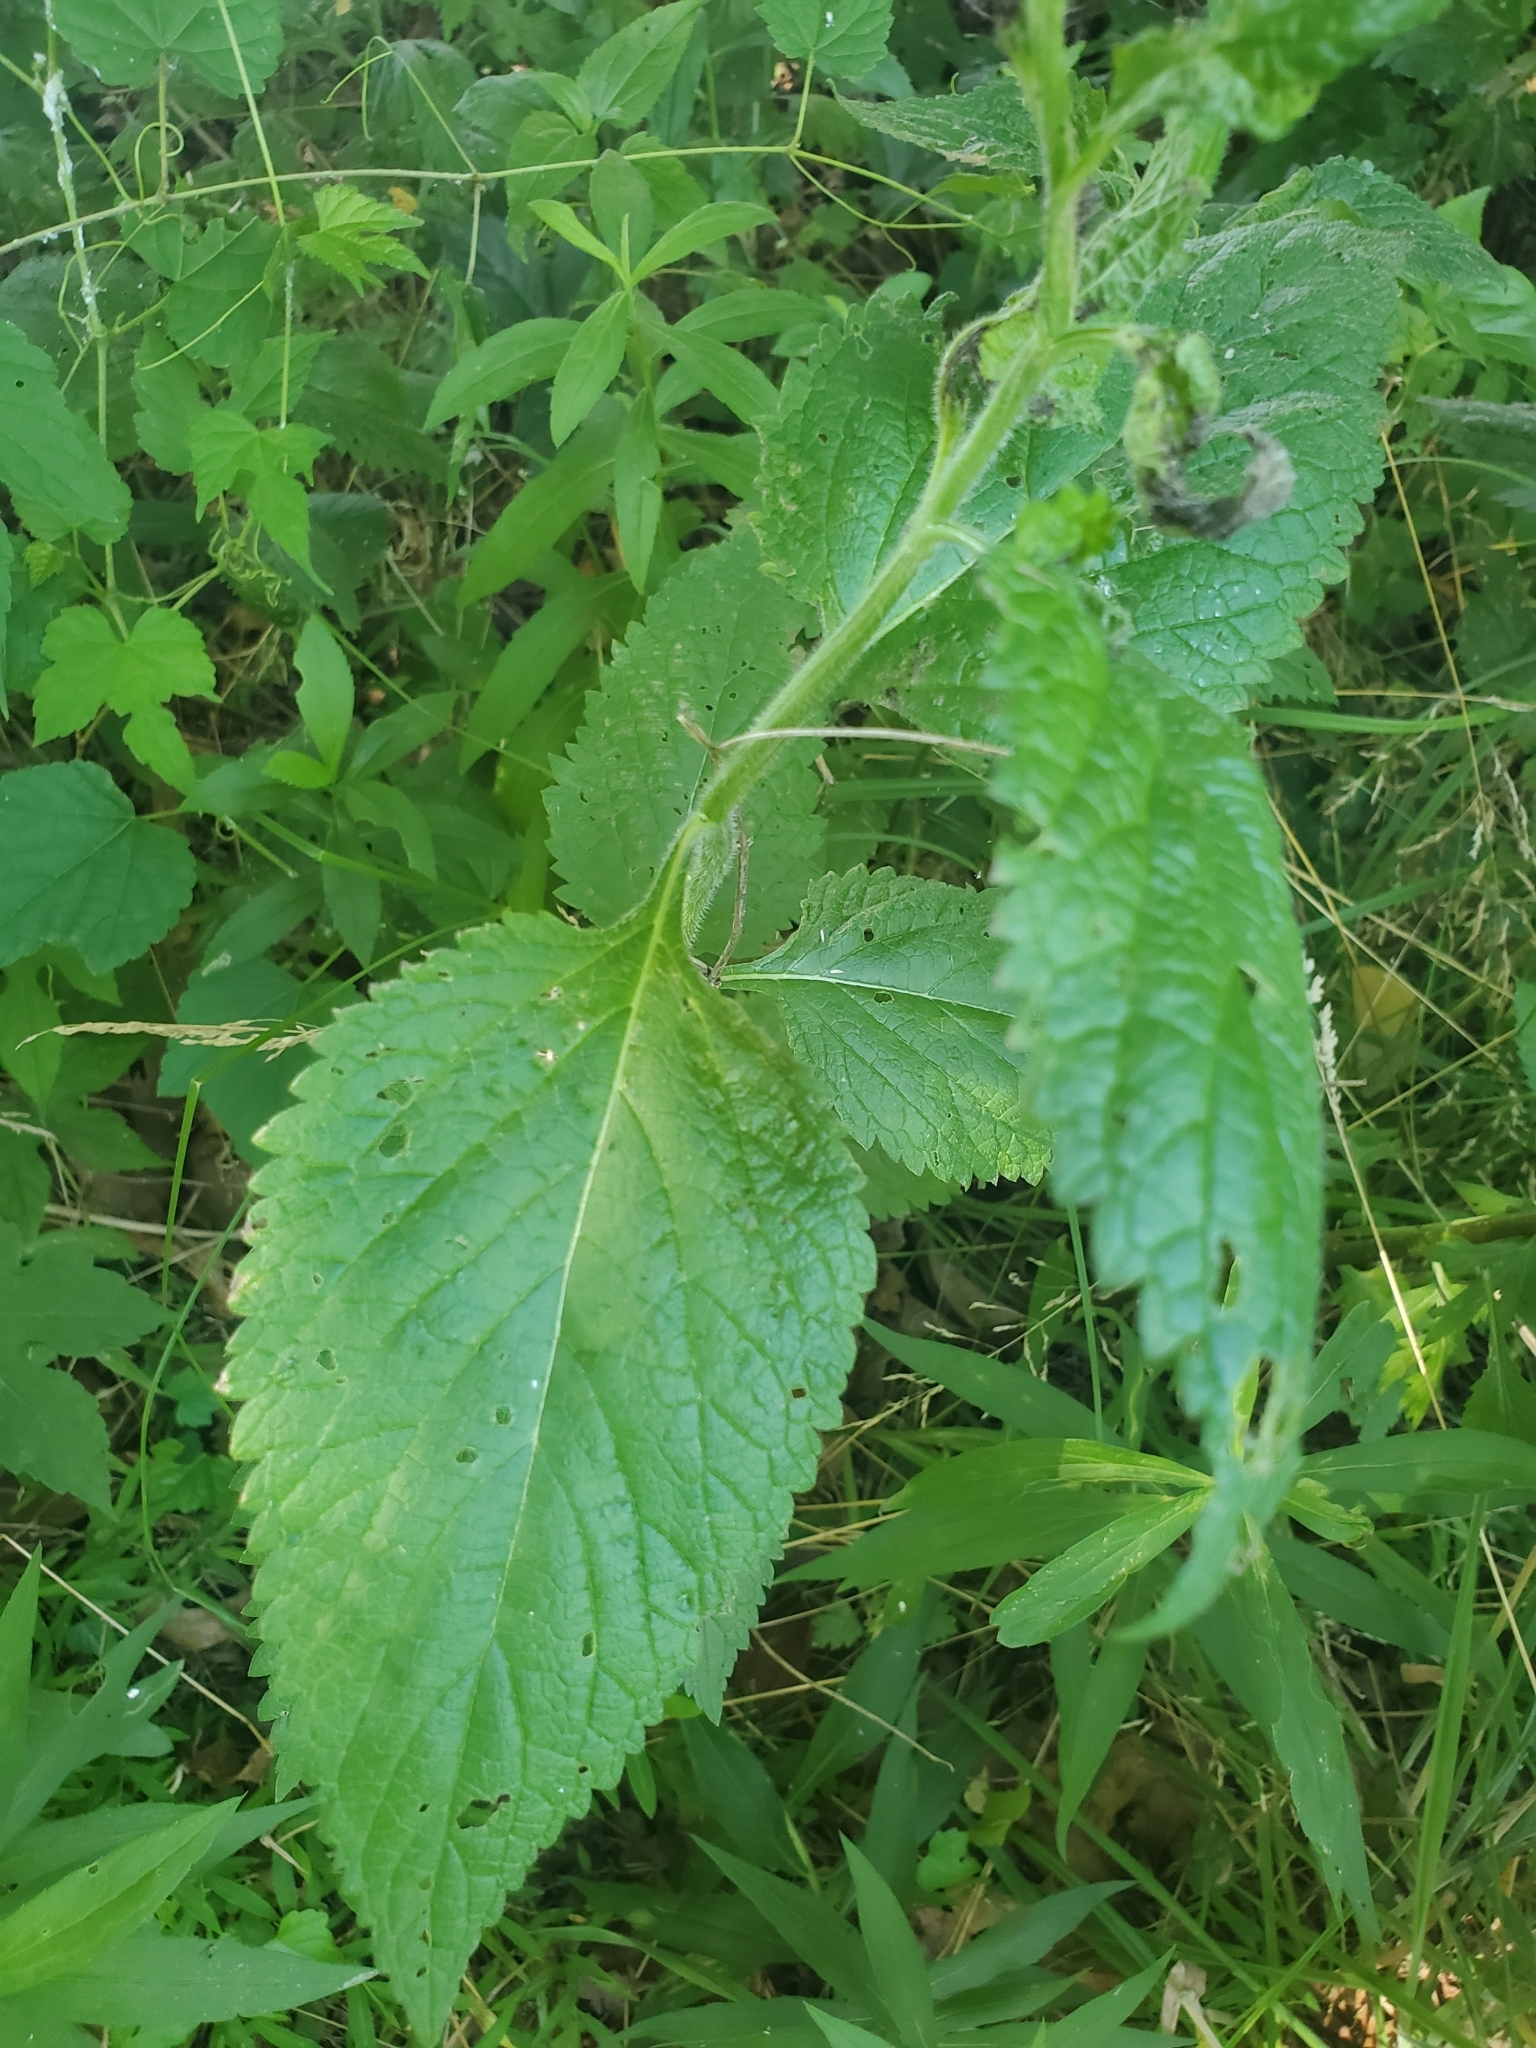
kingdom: Plantae
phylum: Tracheophyta
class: Magnoliopsida
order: Lamiales
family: Verbenaceae
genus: Verbena
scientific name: Verbena urticifolia
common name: Nettle-leaved vervain
